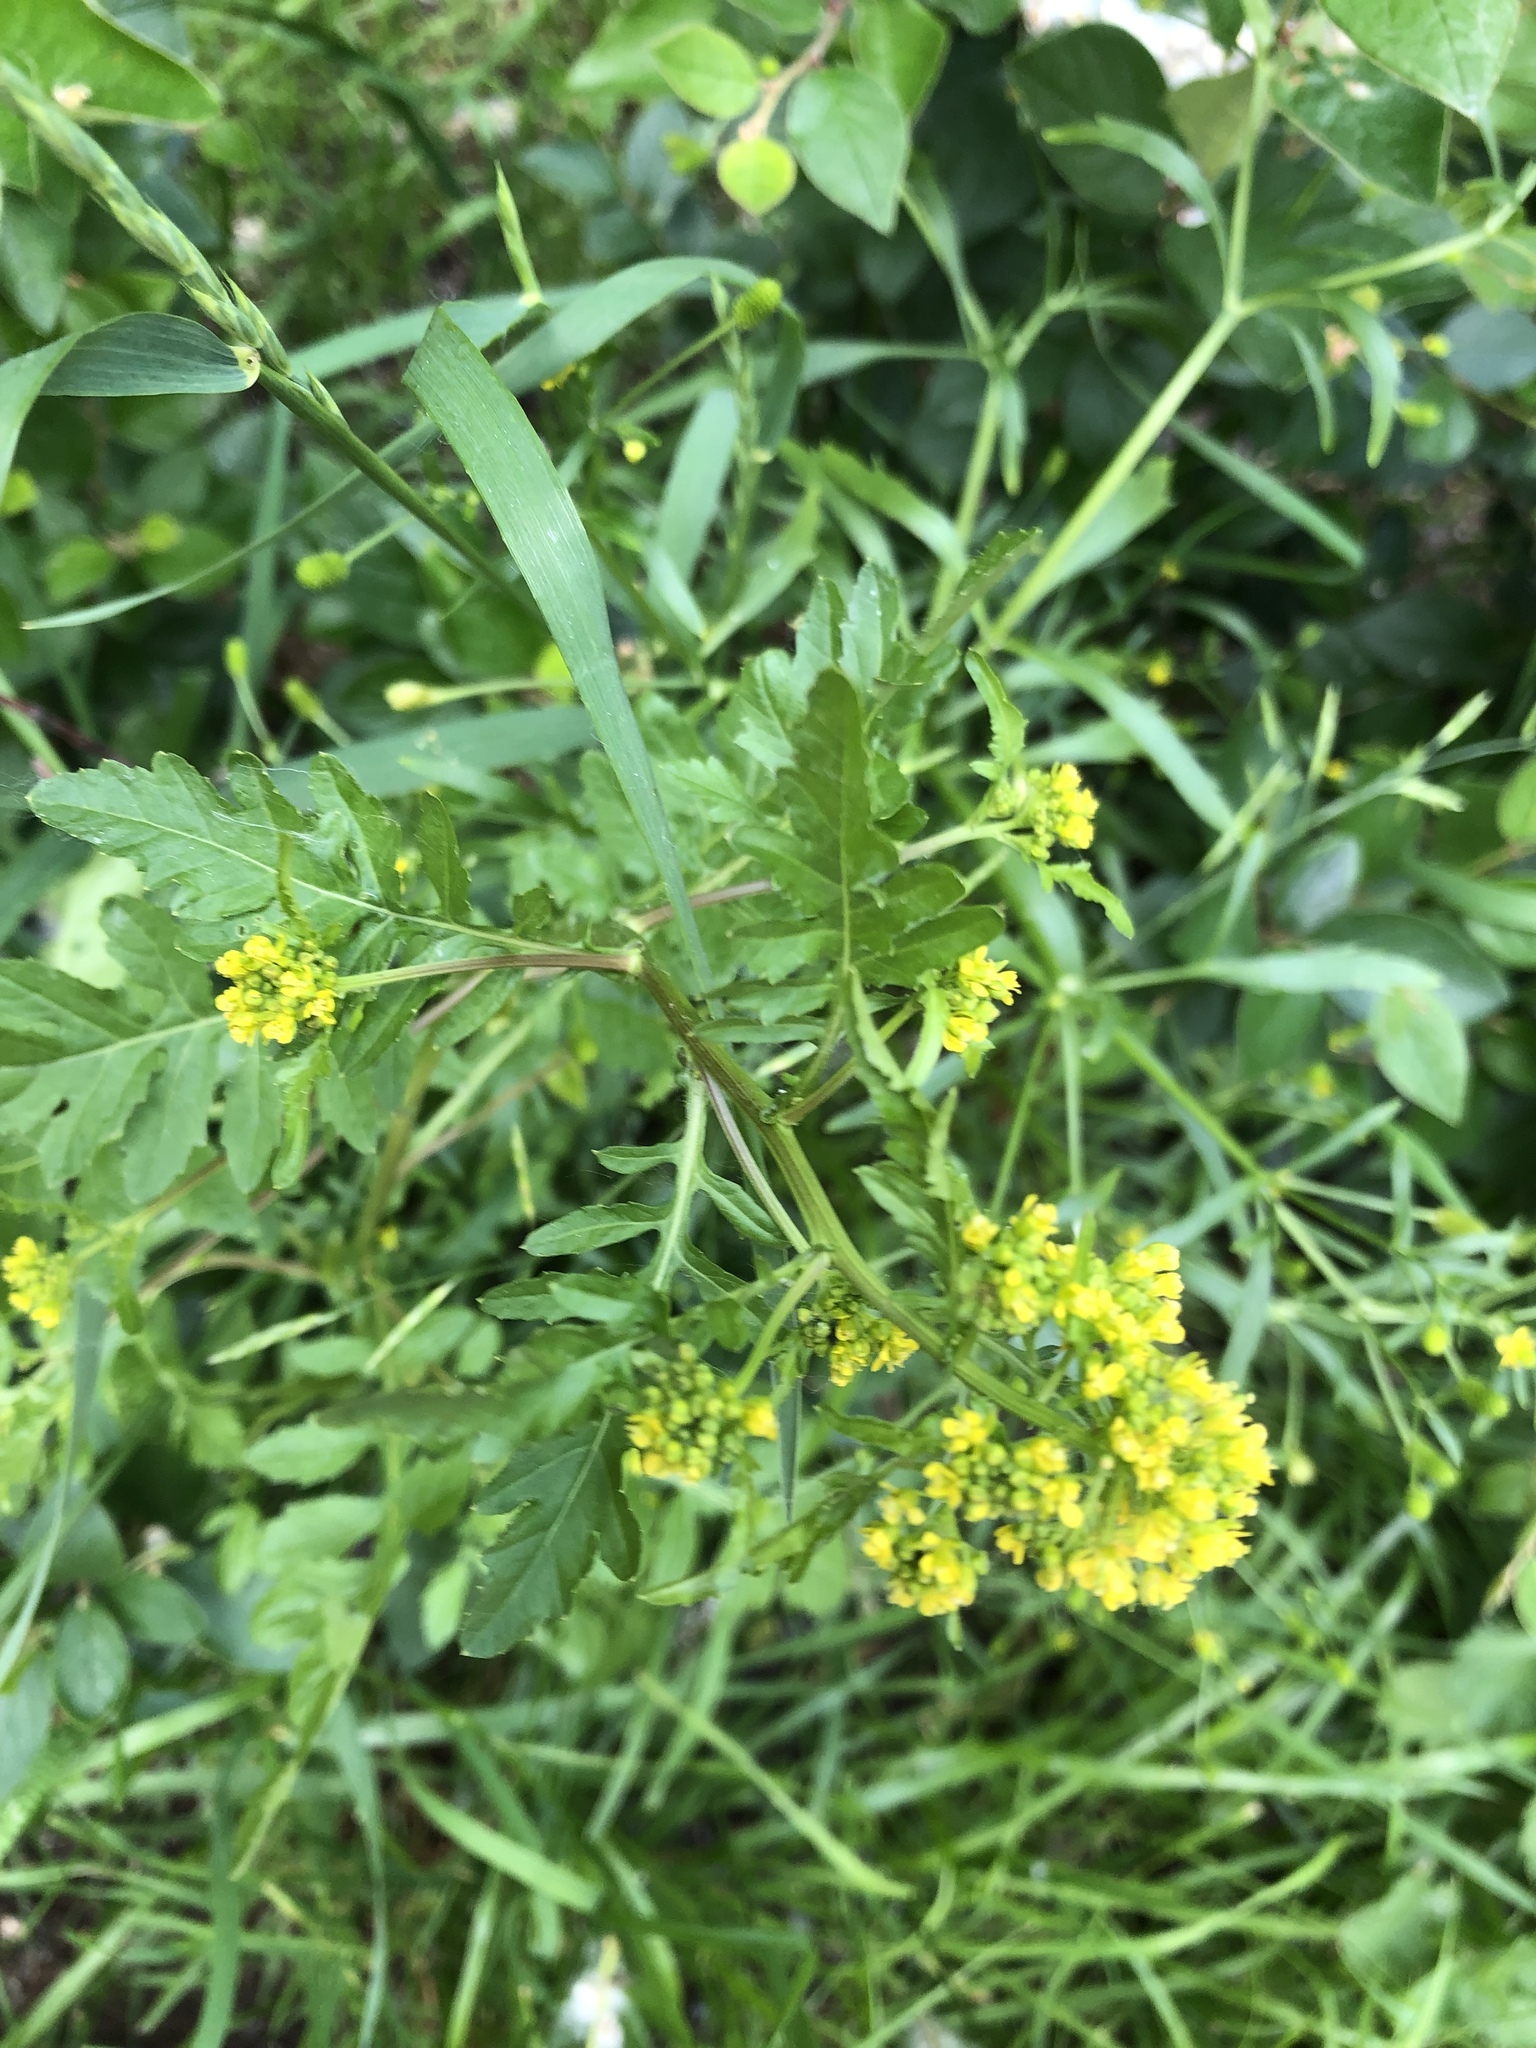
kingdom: Plantae
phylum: Tracheophyta
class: Magnoliopsida
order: Brassicales
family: Brassicaceae
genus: Rorippa
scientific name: Rorippa sylvestris
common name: Creeping yellowcress
